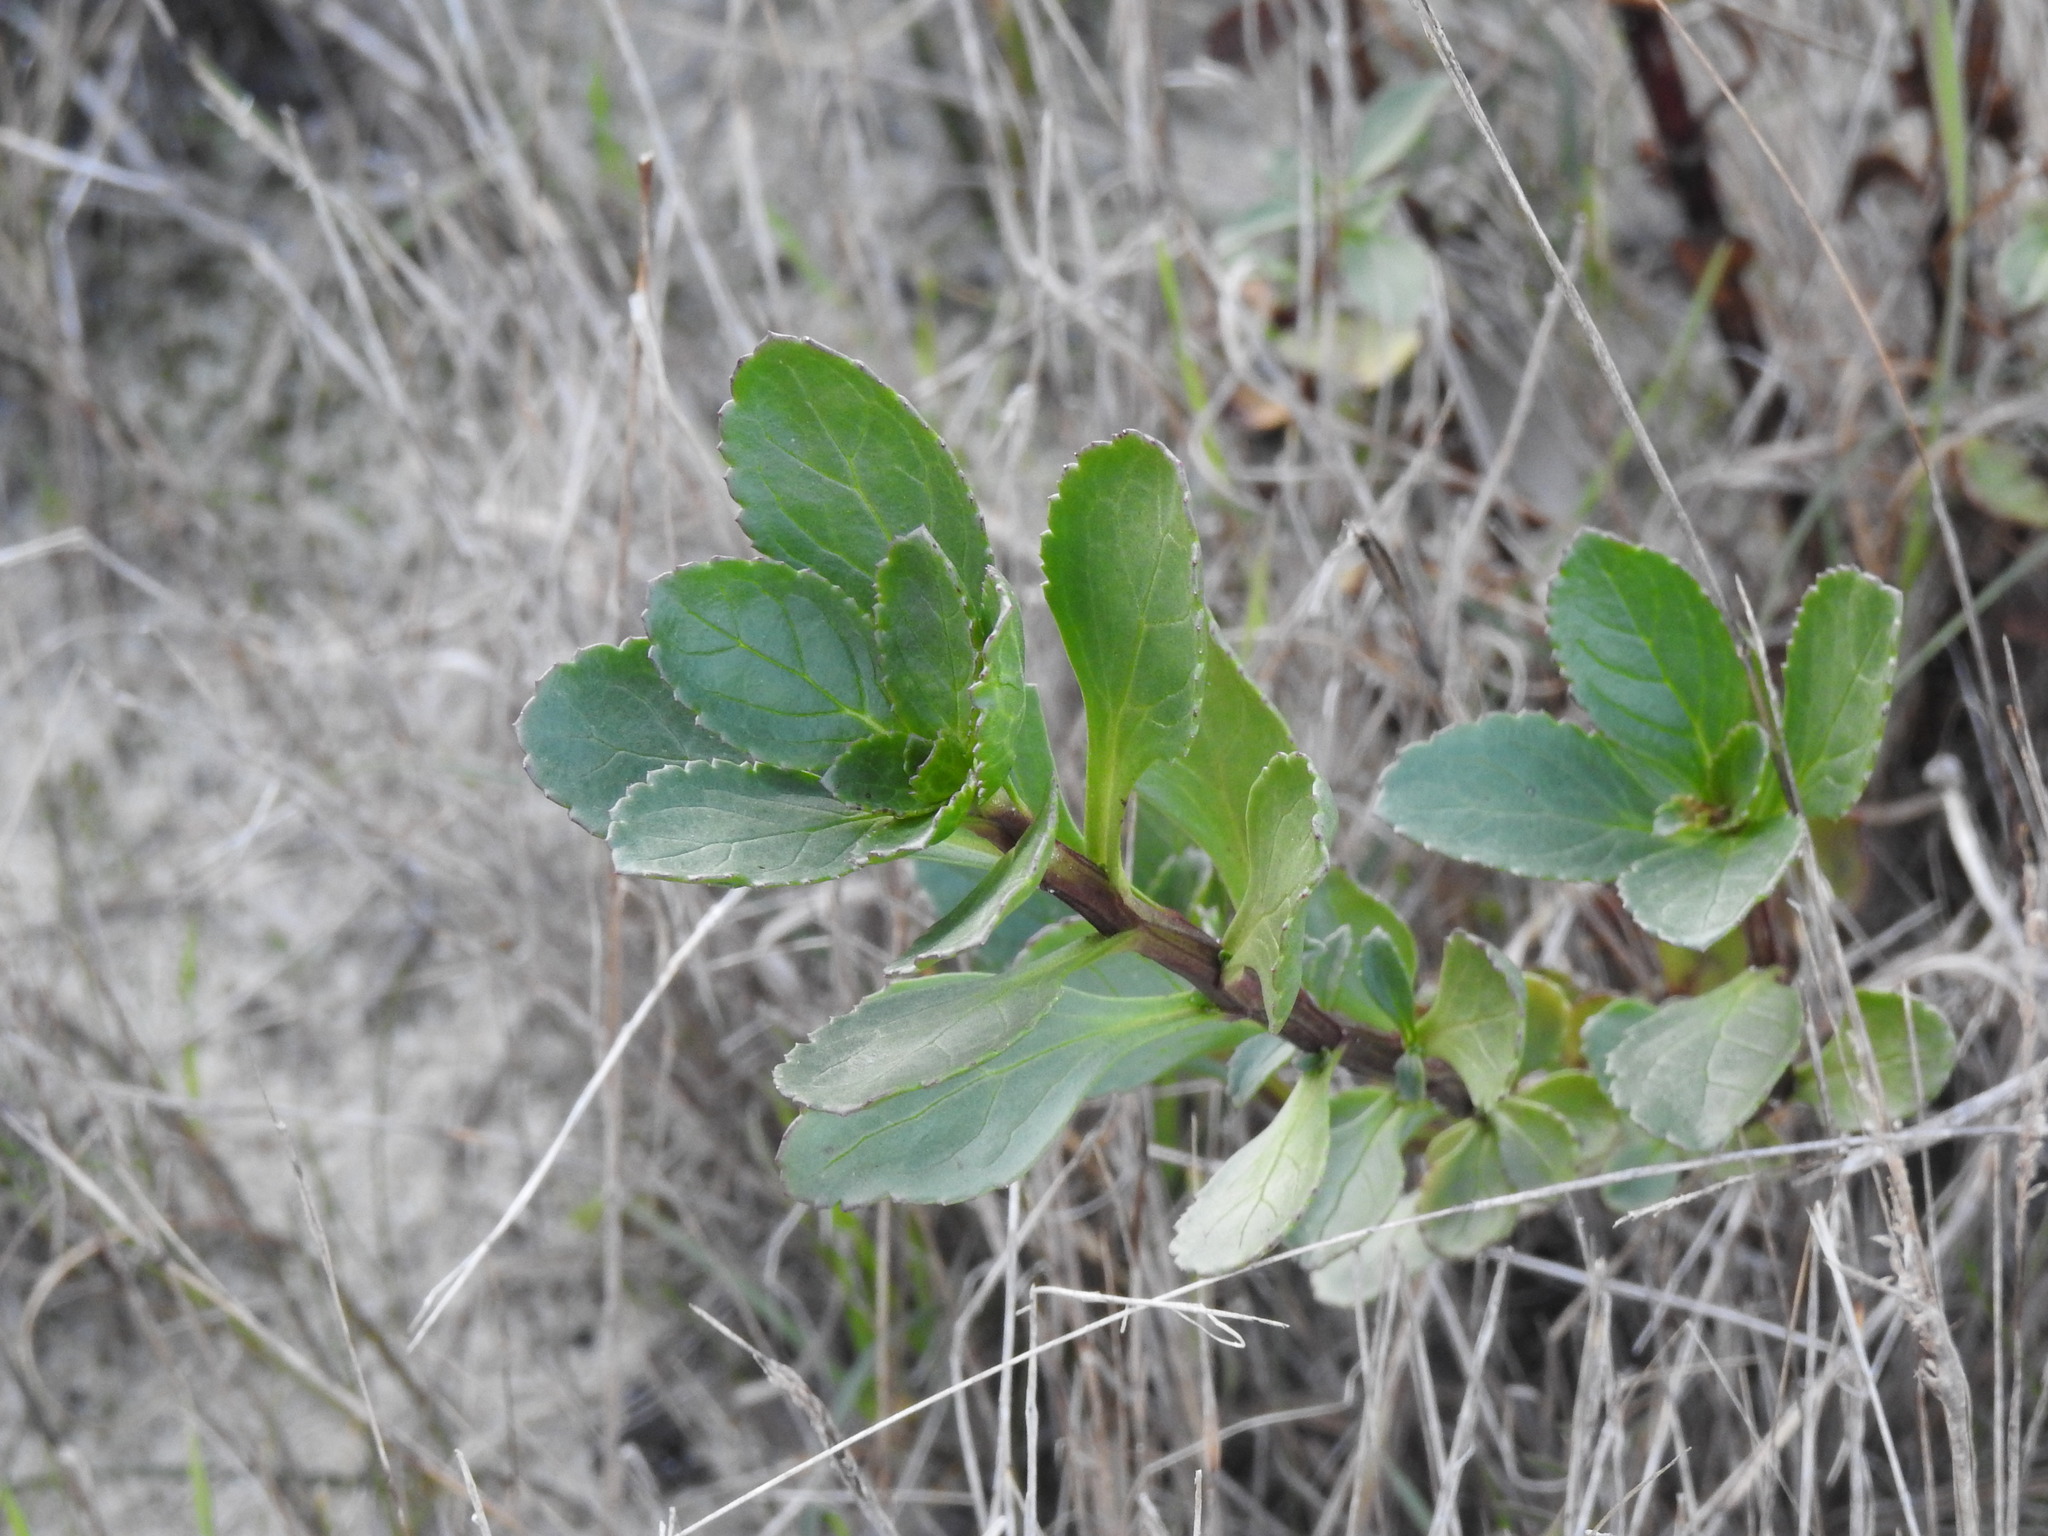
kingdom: Plantae
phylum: Tracheophyta
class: Magnoliopsida
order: Lamiales
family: Scrophulariaceae
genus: Scrophularia
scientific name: Scrophularia frutescens
